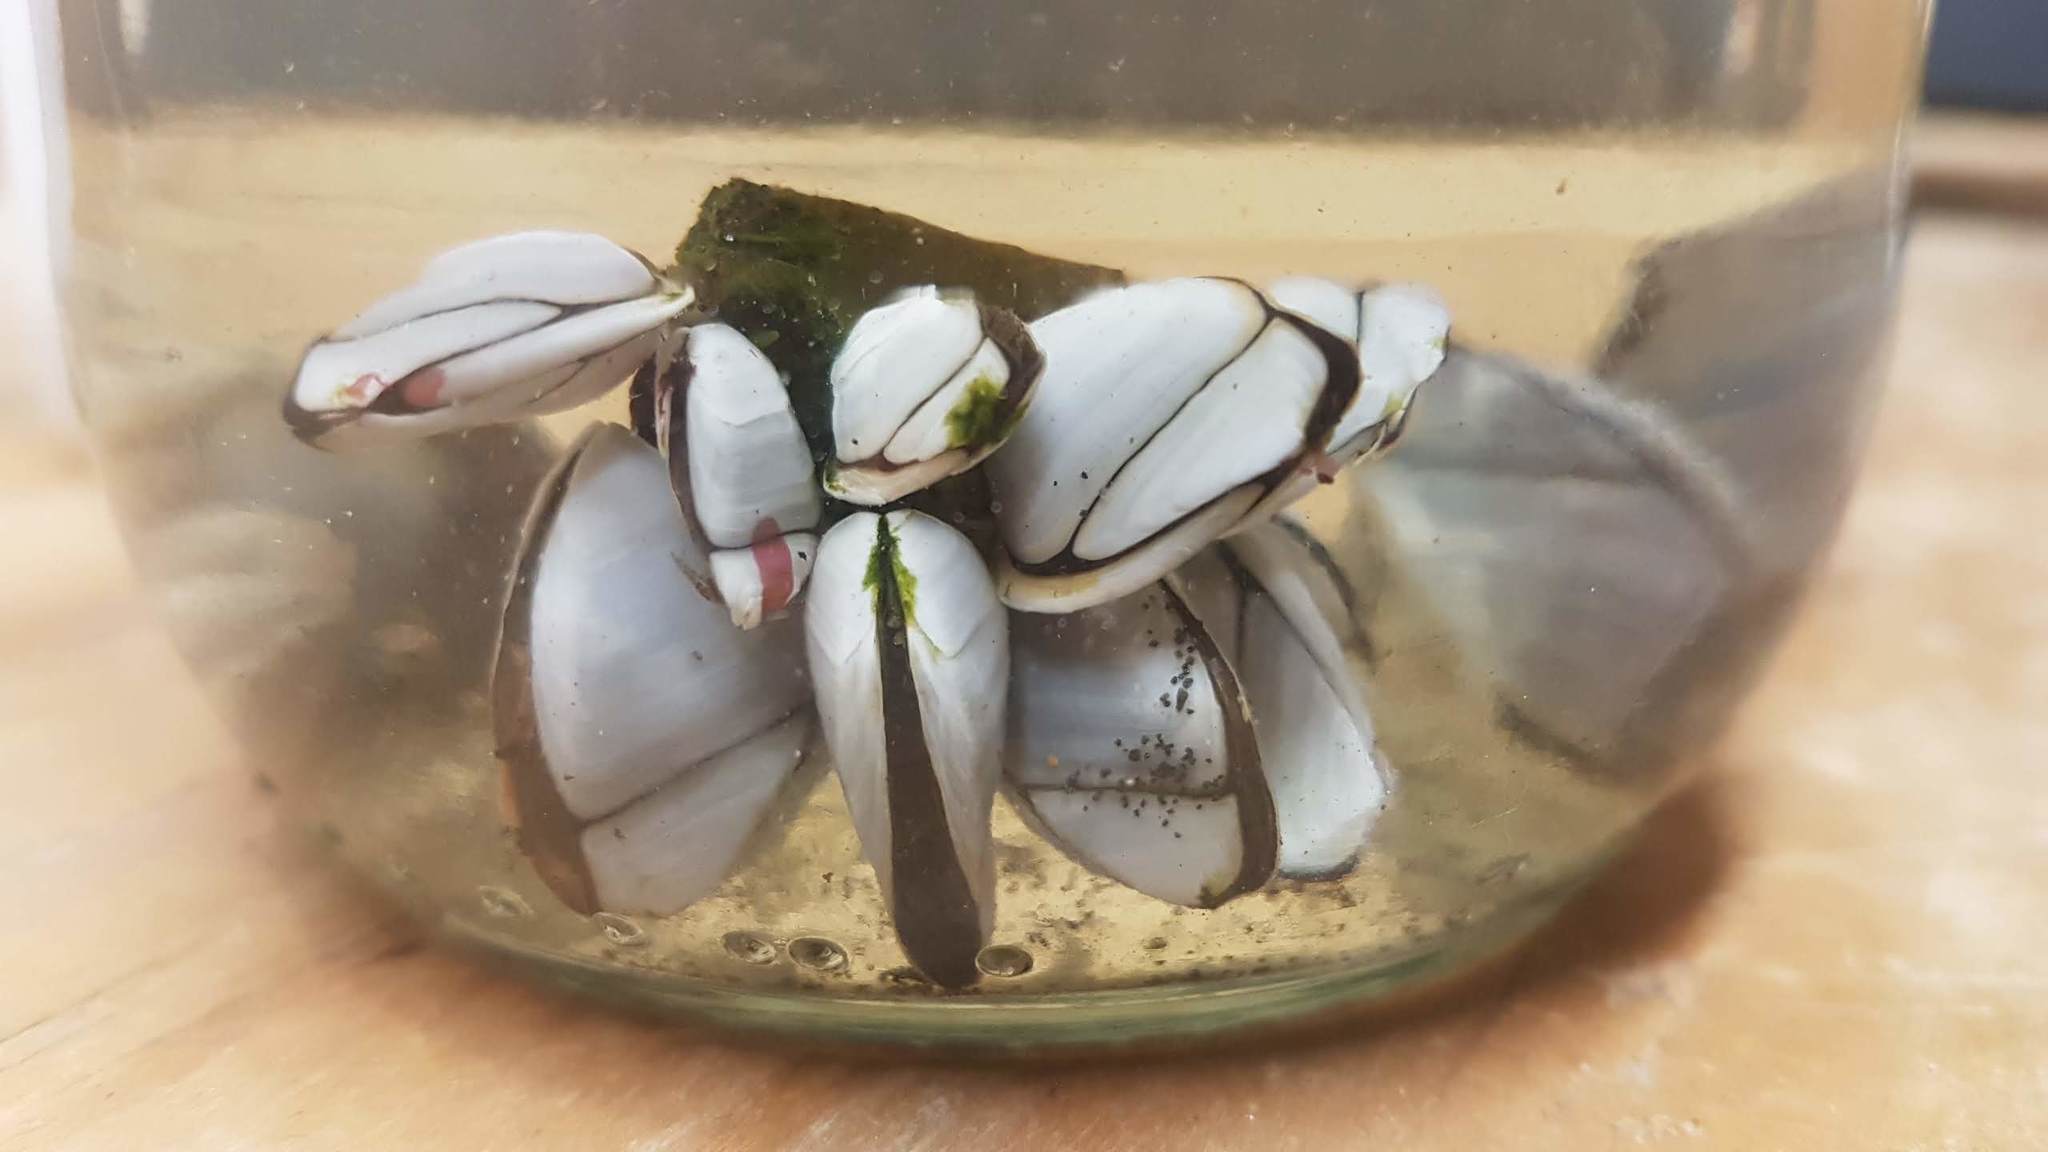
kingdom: Animalia
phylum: Arthropoda
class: Maxillopoda
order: Pedunculata
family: Lepadidae
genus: Lepas
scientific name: Lepas anatifera
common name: Common goose barnacle
